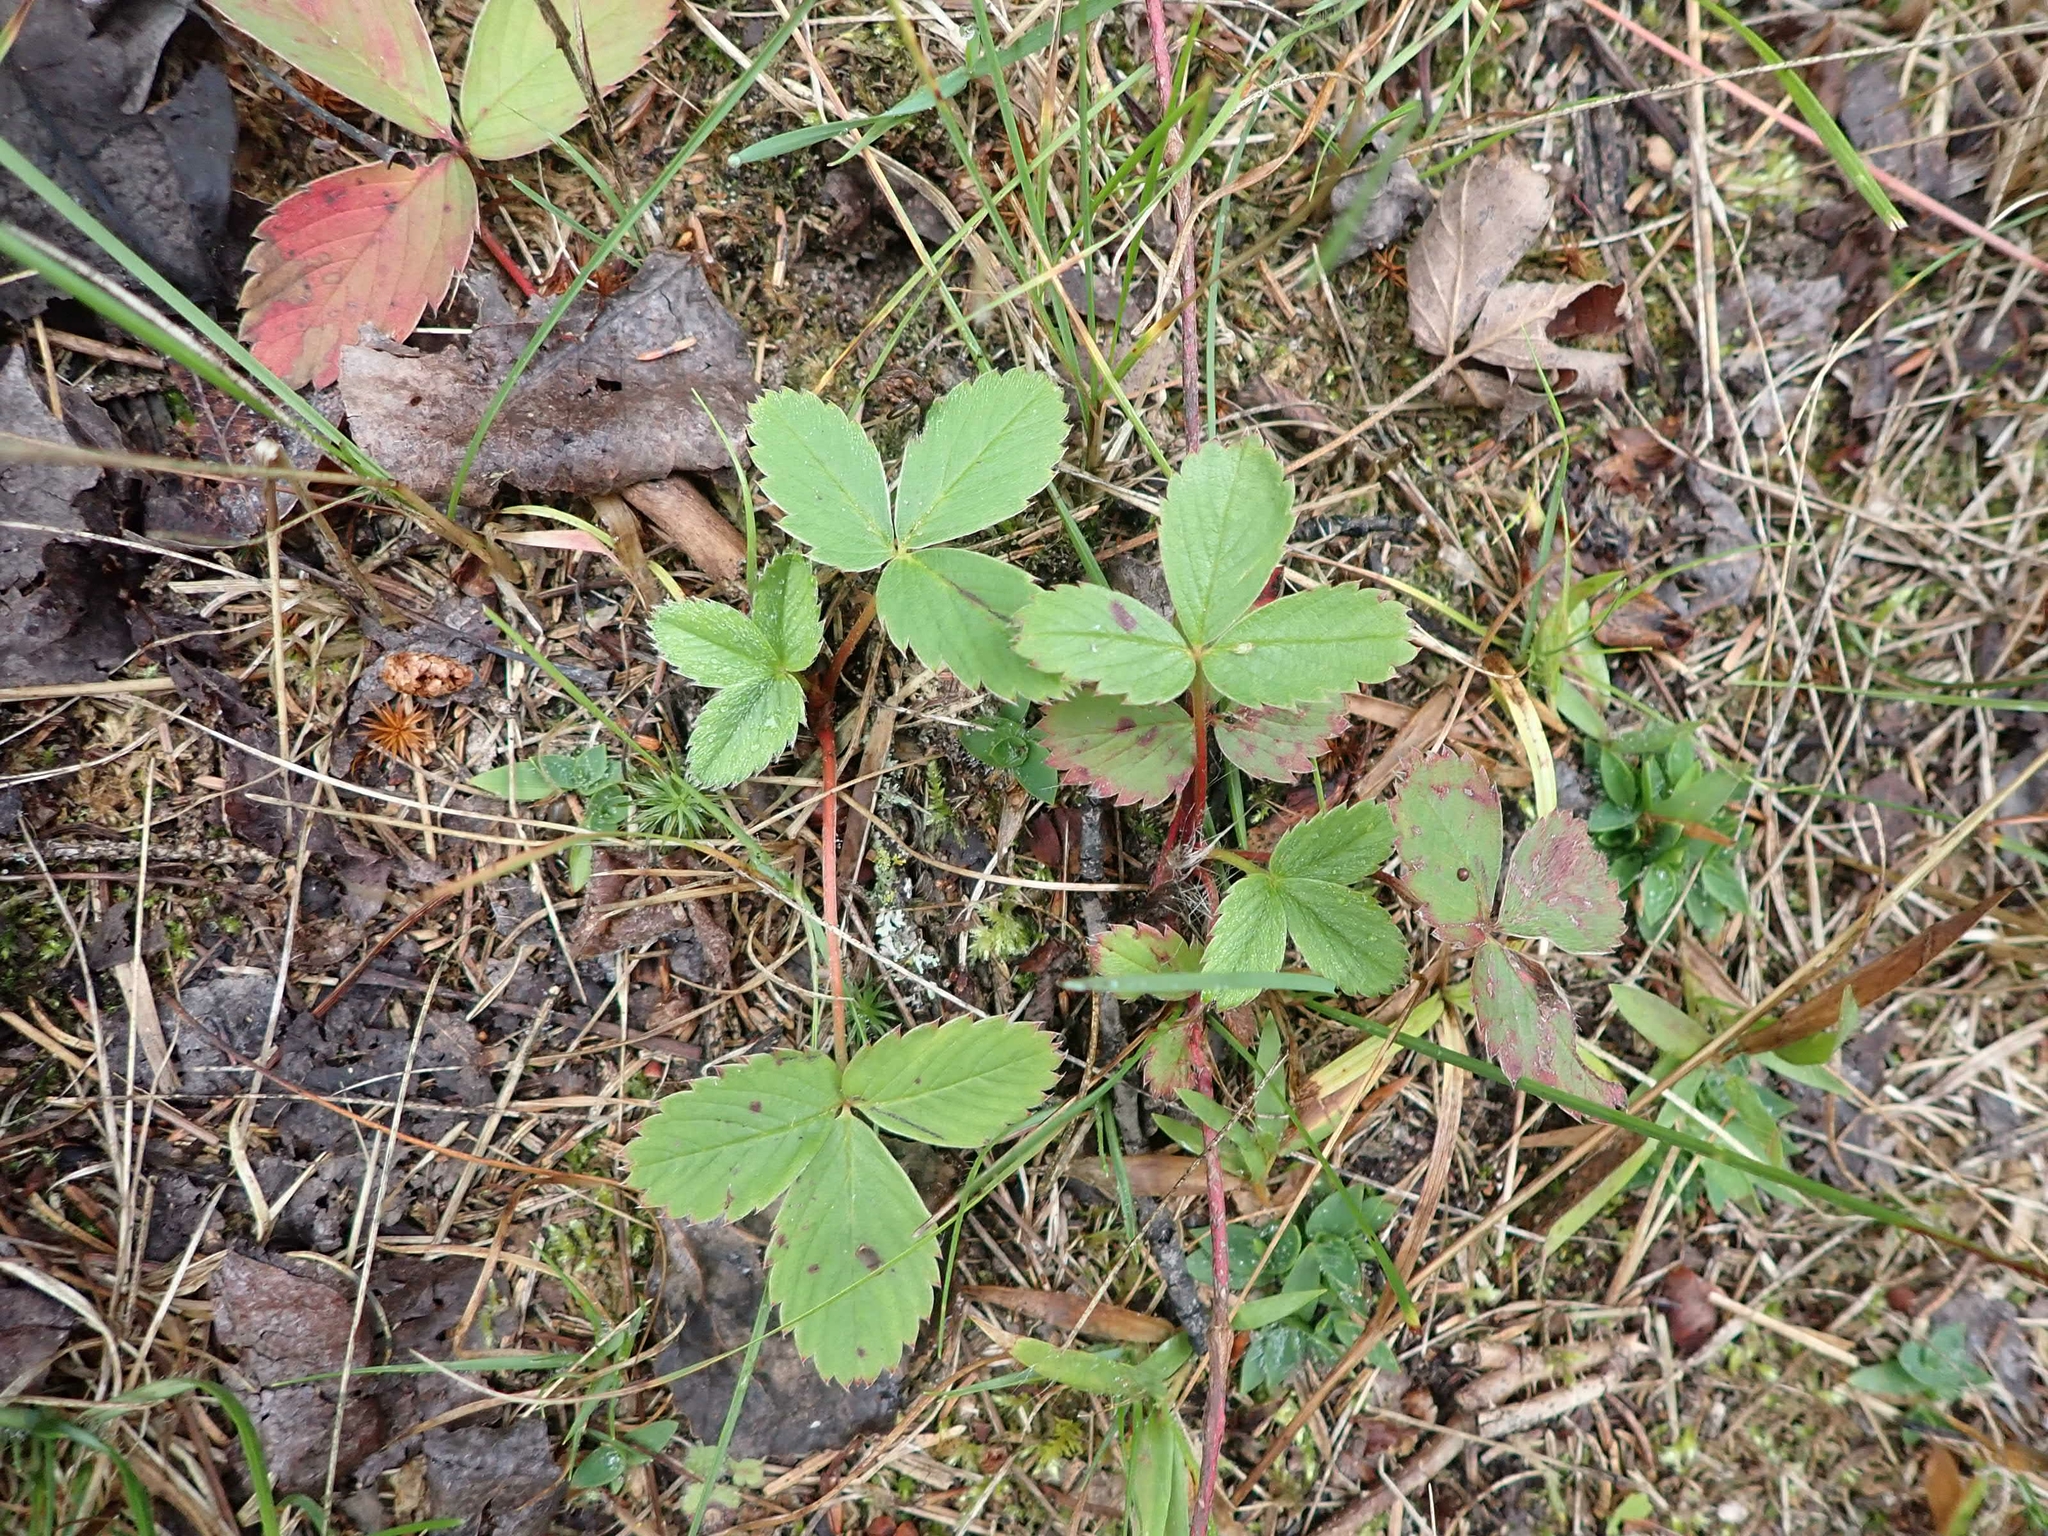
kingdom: Plantae
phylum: Tracheophyta
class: Magnoliopsida
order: Rosales
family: Rosaceae
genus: Fragaria
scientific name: Fragaria virginiana
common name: Thickleaved wild strawberry
